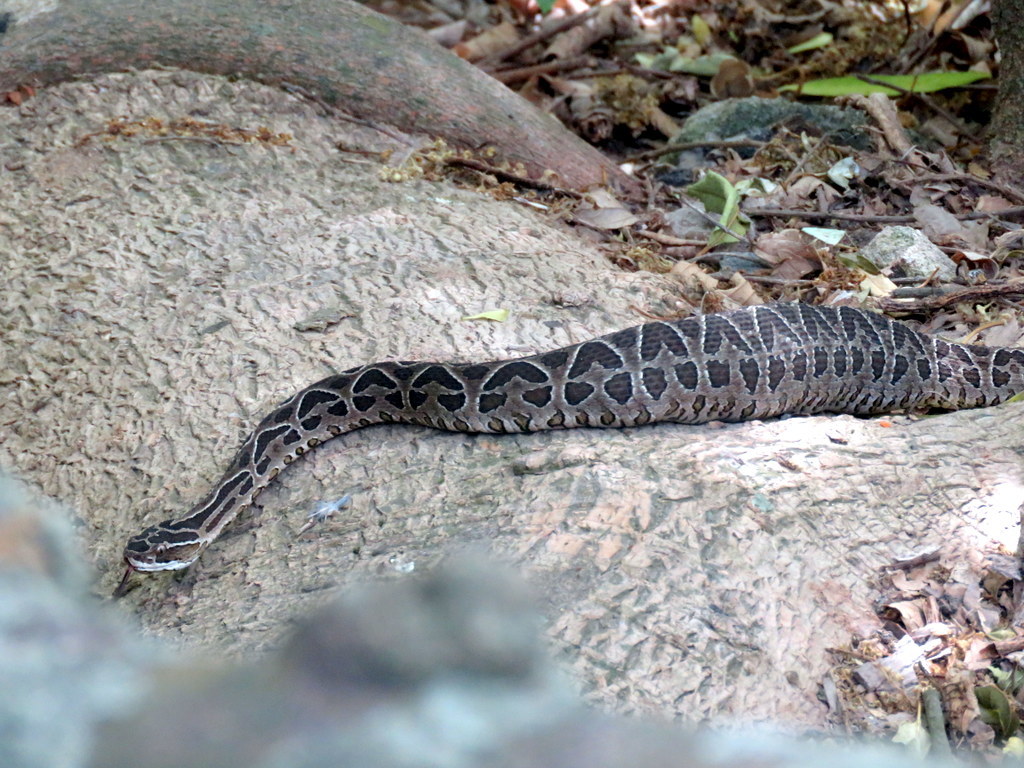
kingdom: Animalia
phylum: Chordata
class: Squamata
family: Viperidae
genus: Bothrops
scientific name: Bothrops alternatus
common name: Urutu
